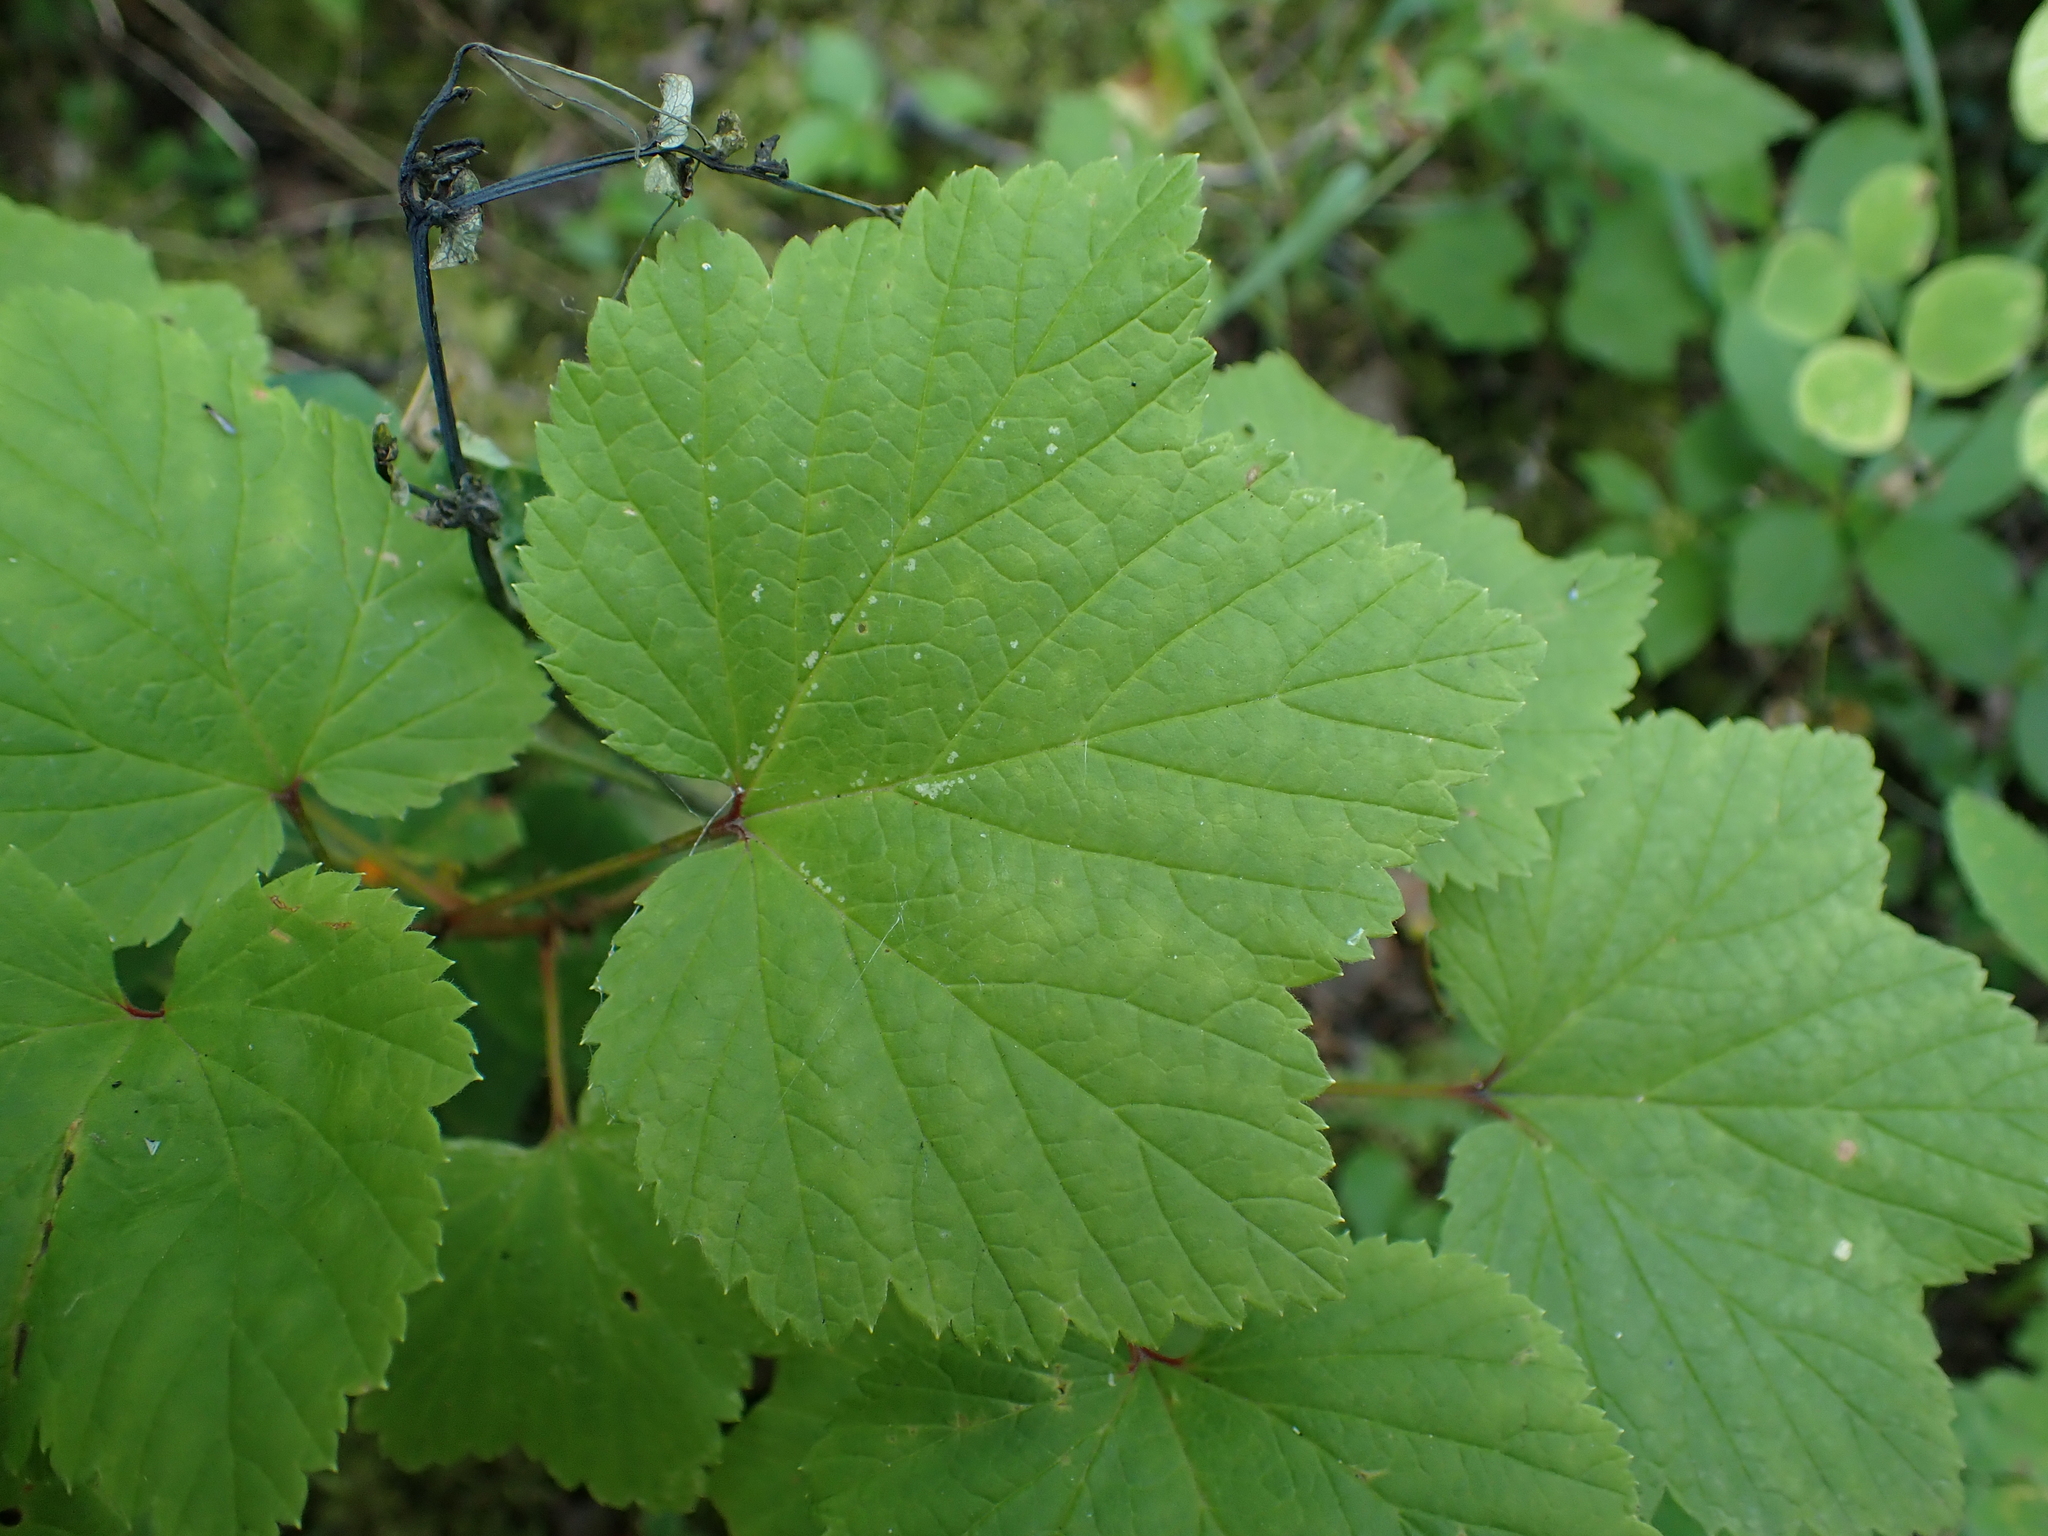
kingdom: Plantae
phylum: Tracheophyta
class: Magnoliopsida
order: Saxifragales
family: Grossulariaceae
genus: Ribes
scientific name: Ribes triste
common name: Swamp red currant
